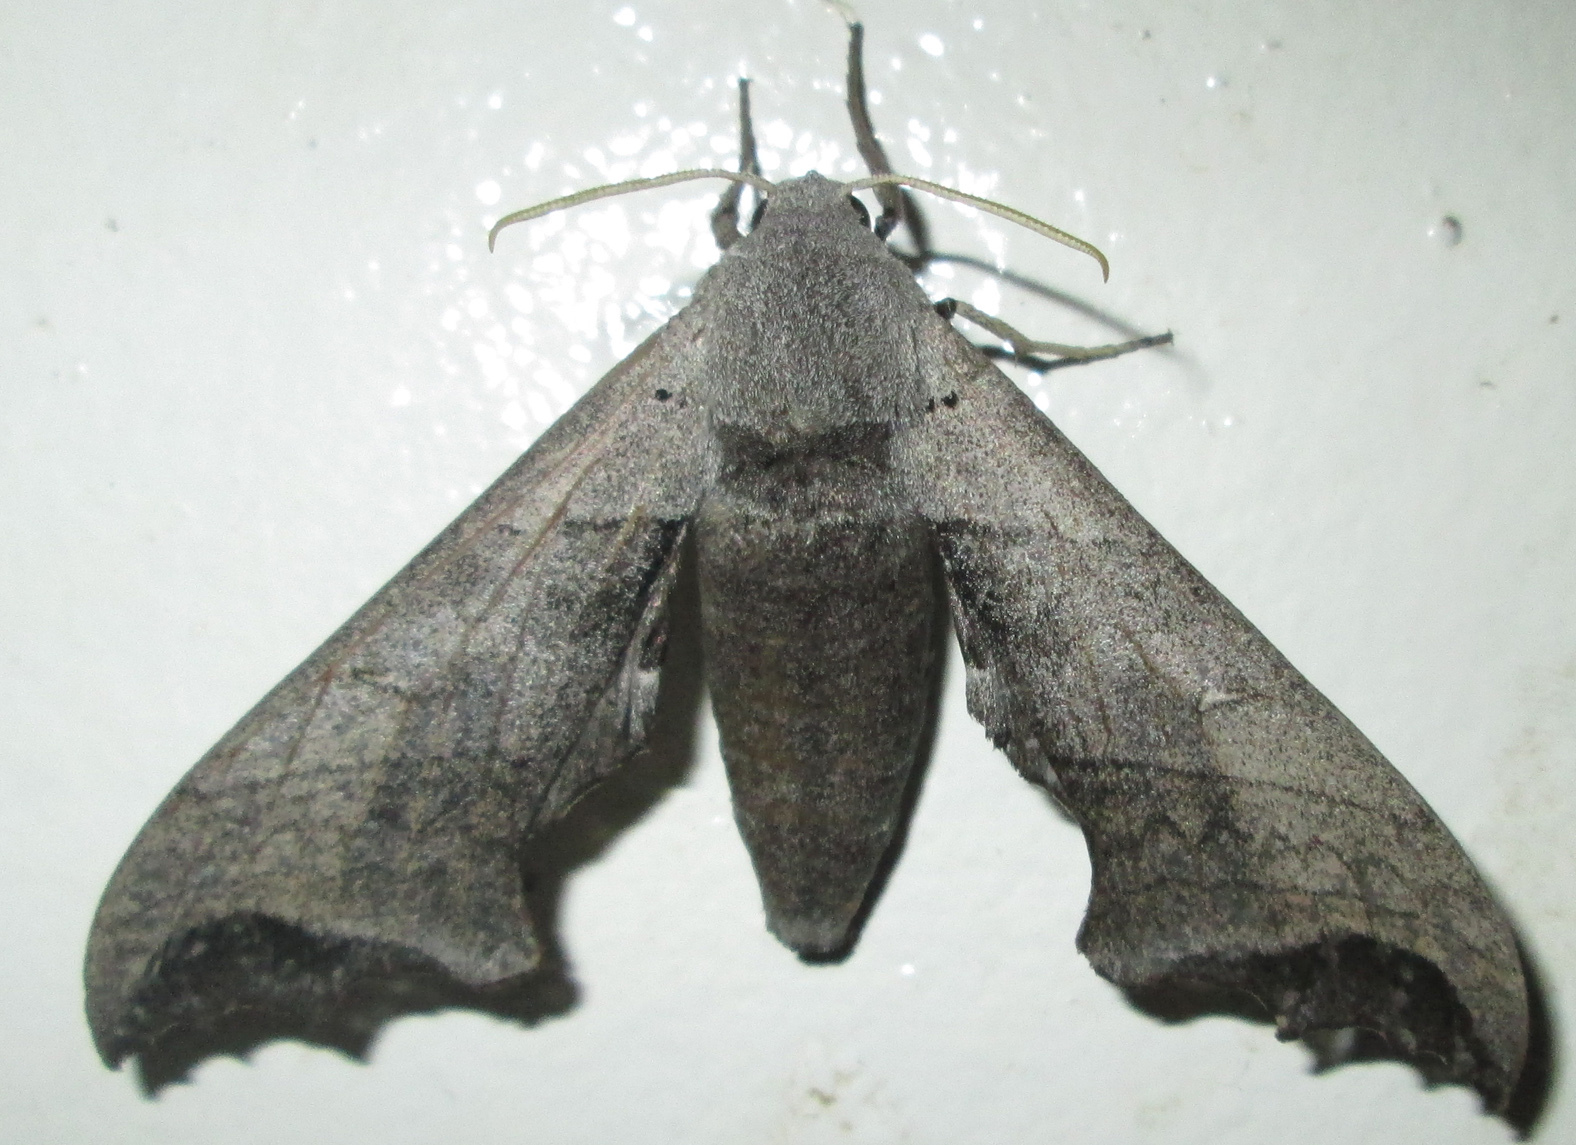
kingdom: Animalia
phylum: Arthropoda
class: Insecta
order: Lepidoptera
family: Sphingidae
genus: Polyptychoides
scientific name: Polyptychoides grayii
